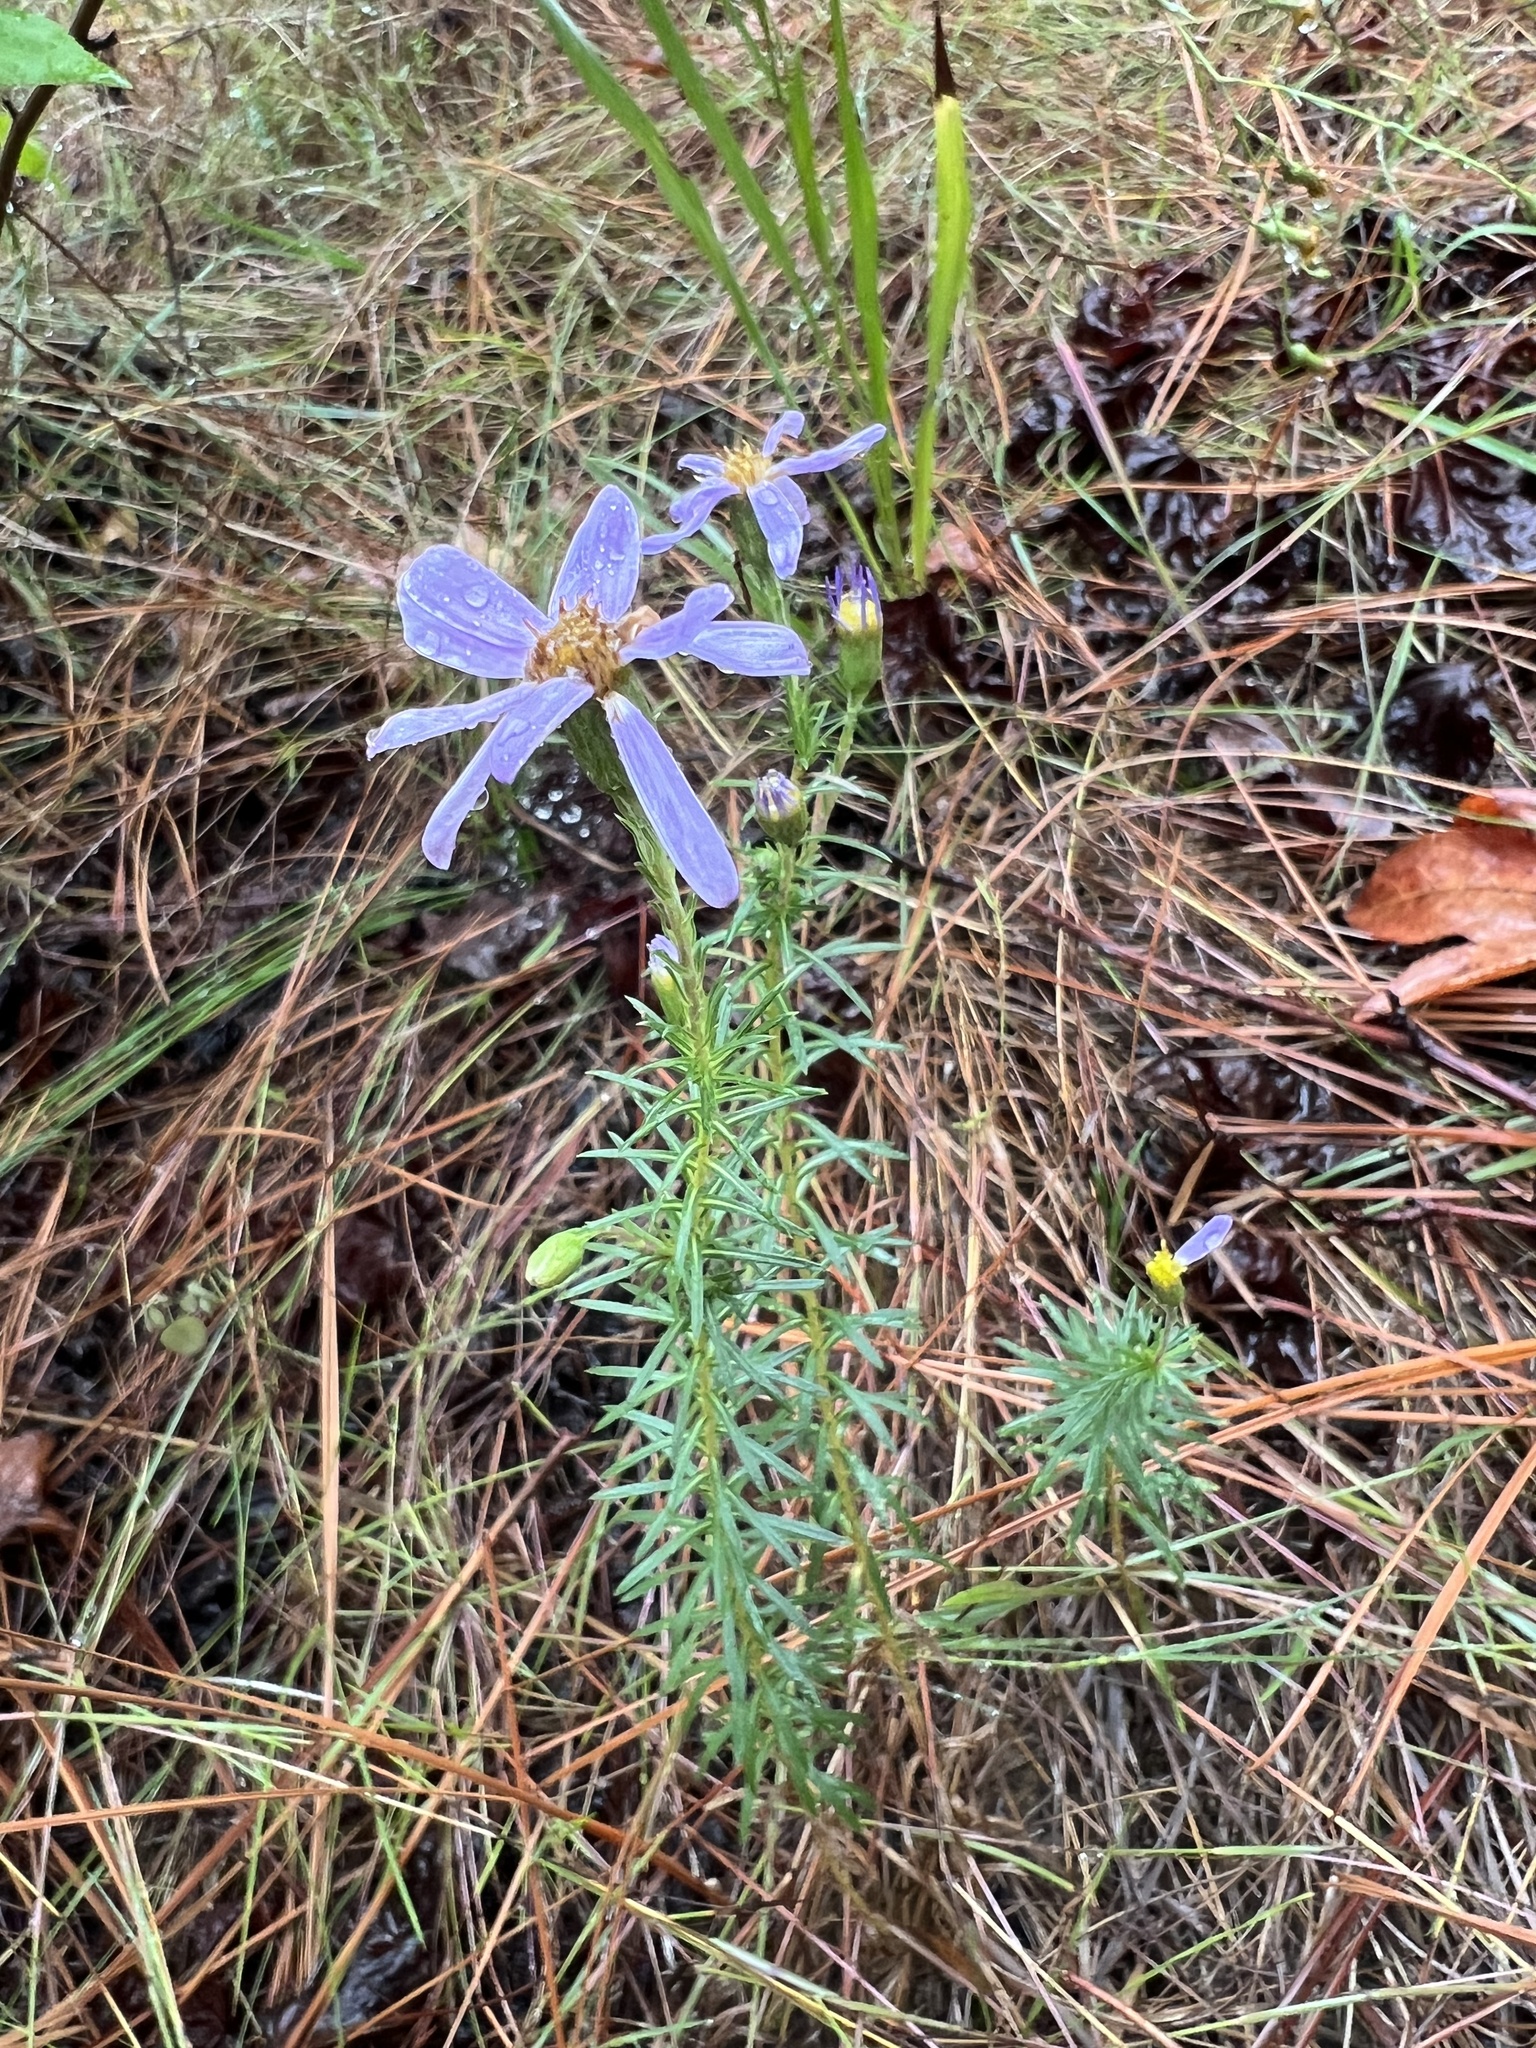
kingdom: Plantae
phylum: Tracheophyta
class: Magnoliopsida
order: Asterales
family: Asteraceae
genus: Ionactis
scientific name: Ionactis linariifolia
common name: Flax-leaf aster
